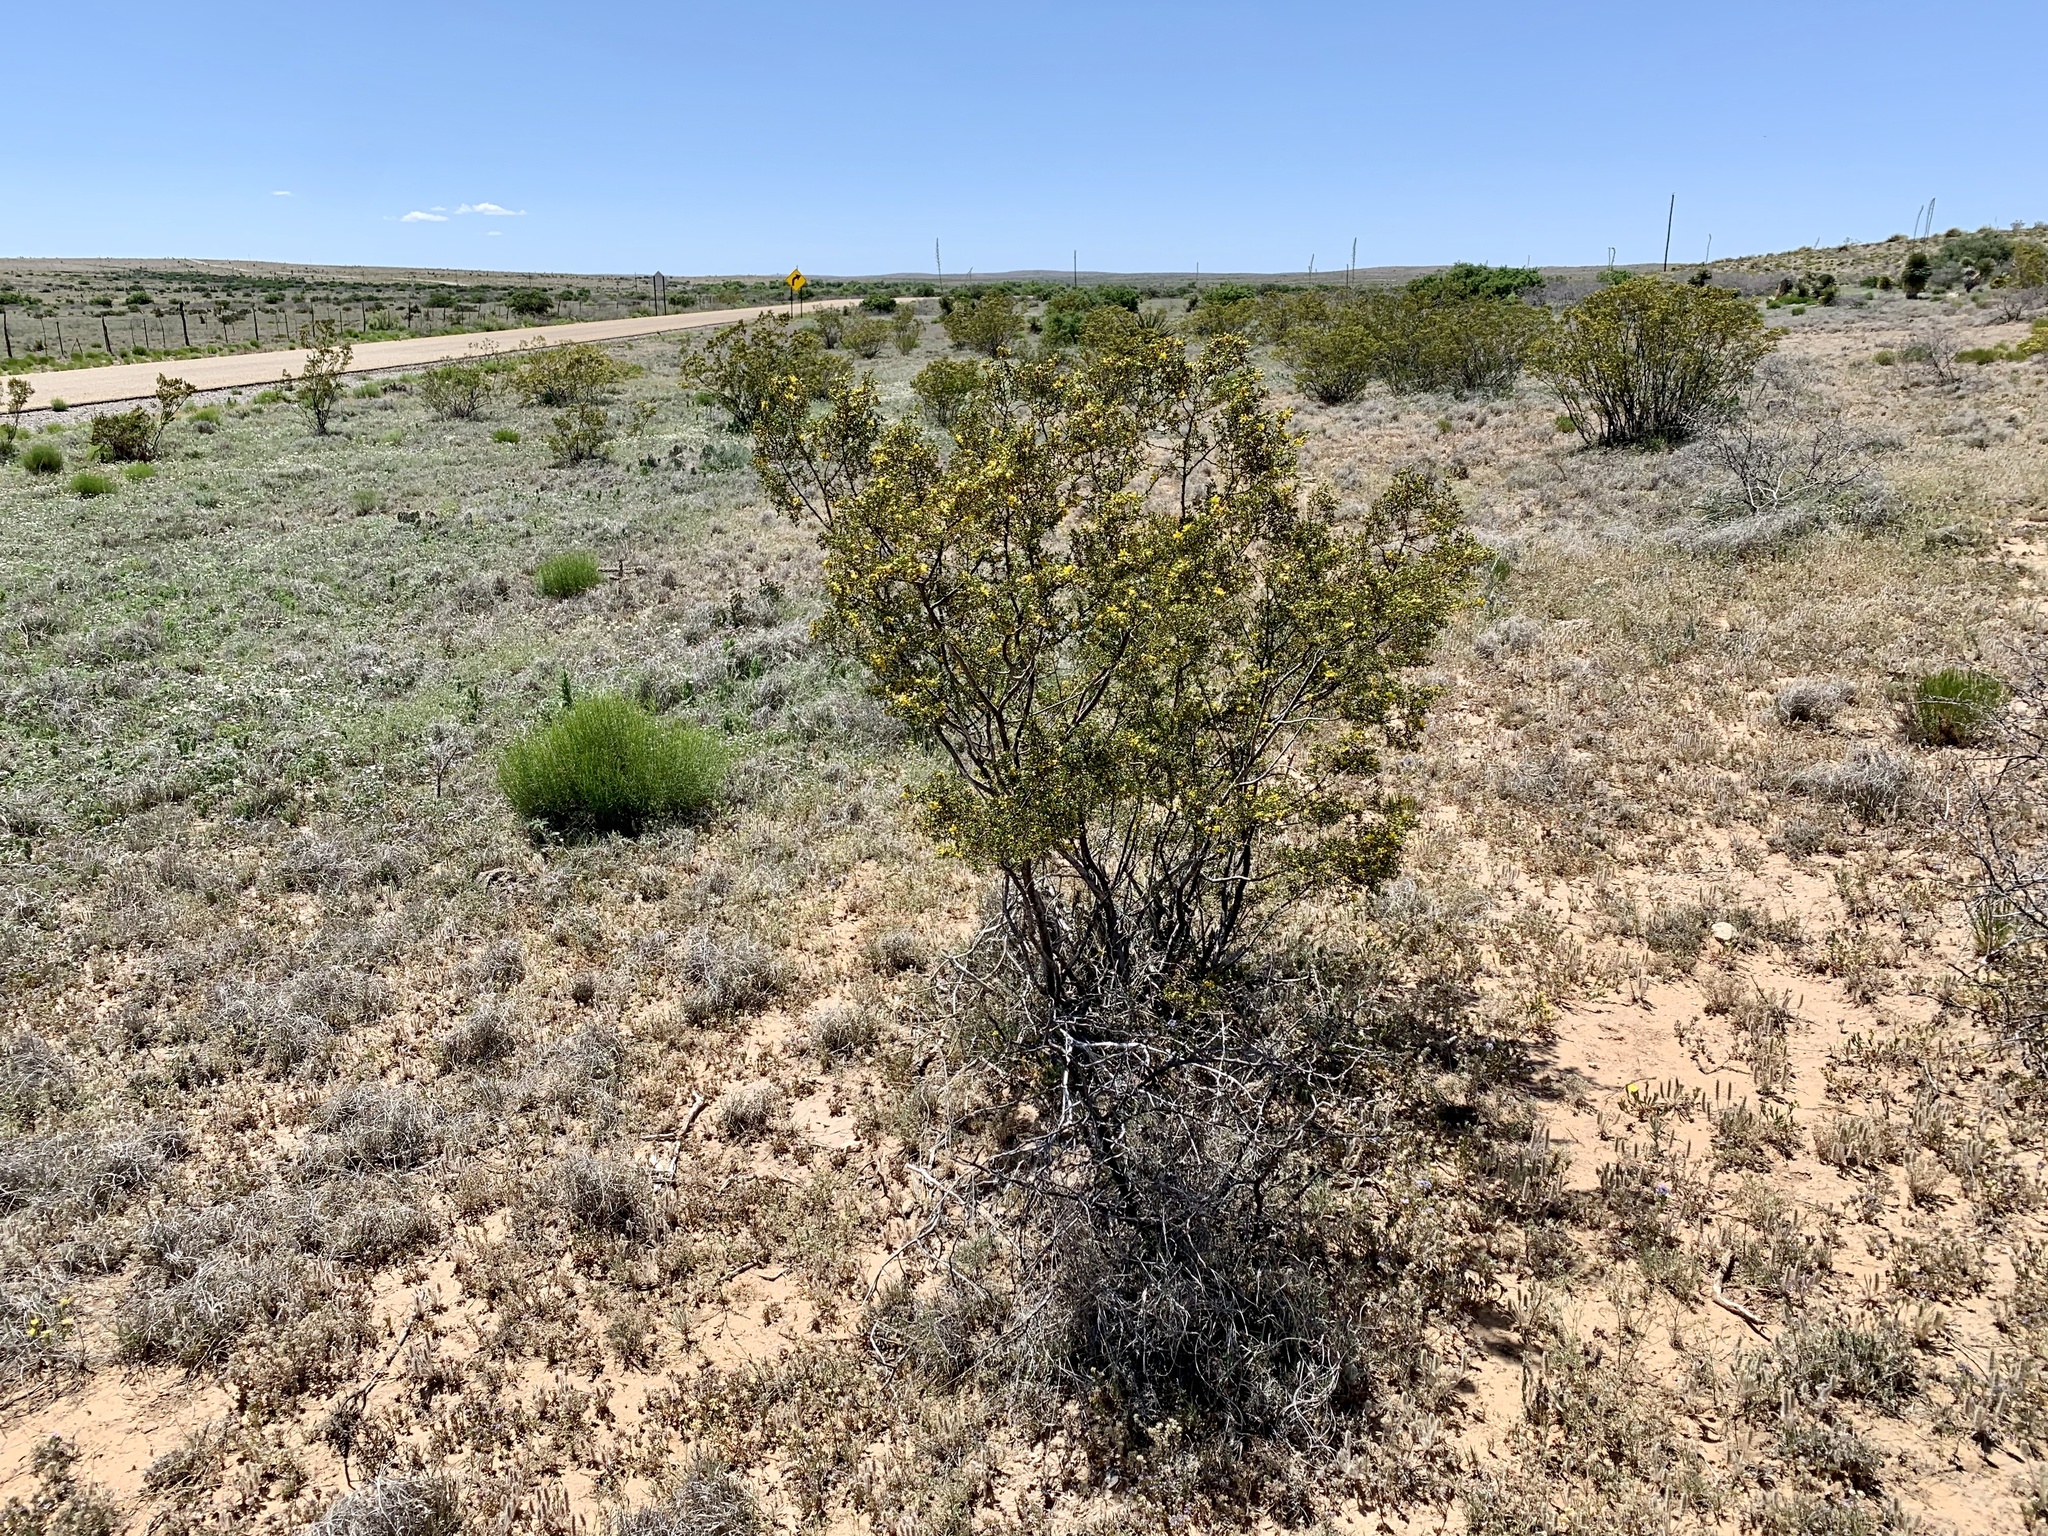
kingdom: Plantae
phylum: Tracheophyta
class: Magnoliopsida
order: Zygophyllales
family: Zygophyllaceae
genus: Larrea
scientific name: Larrea tridentata
